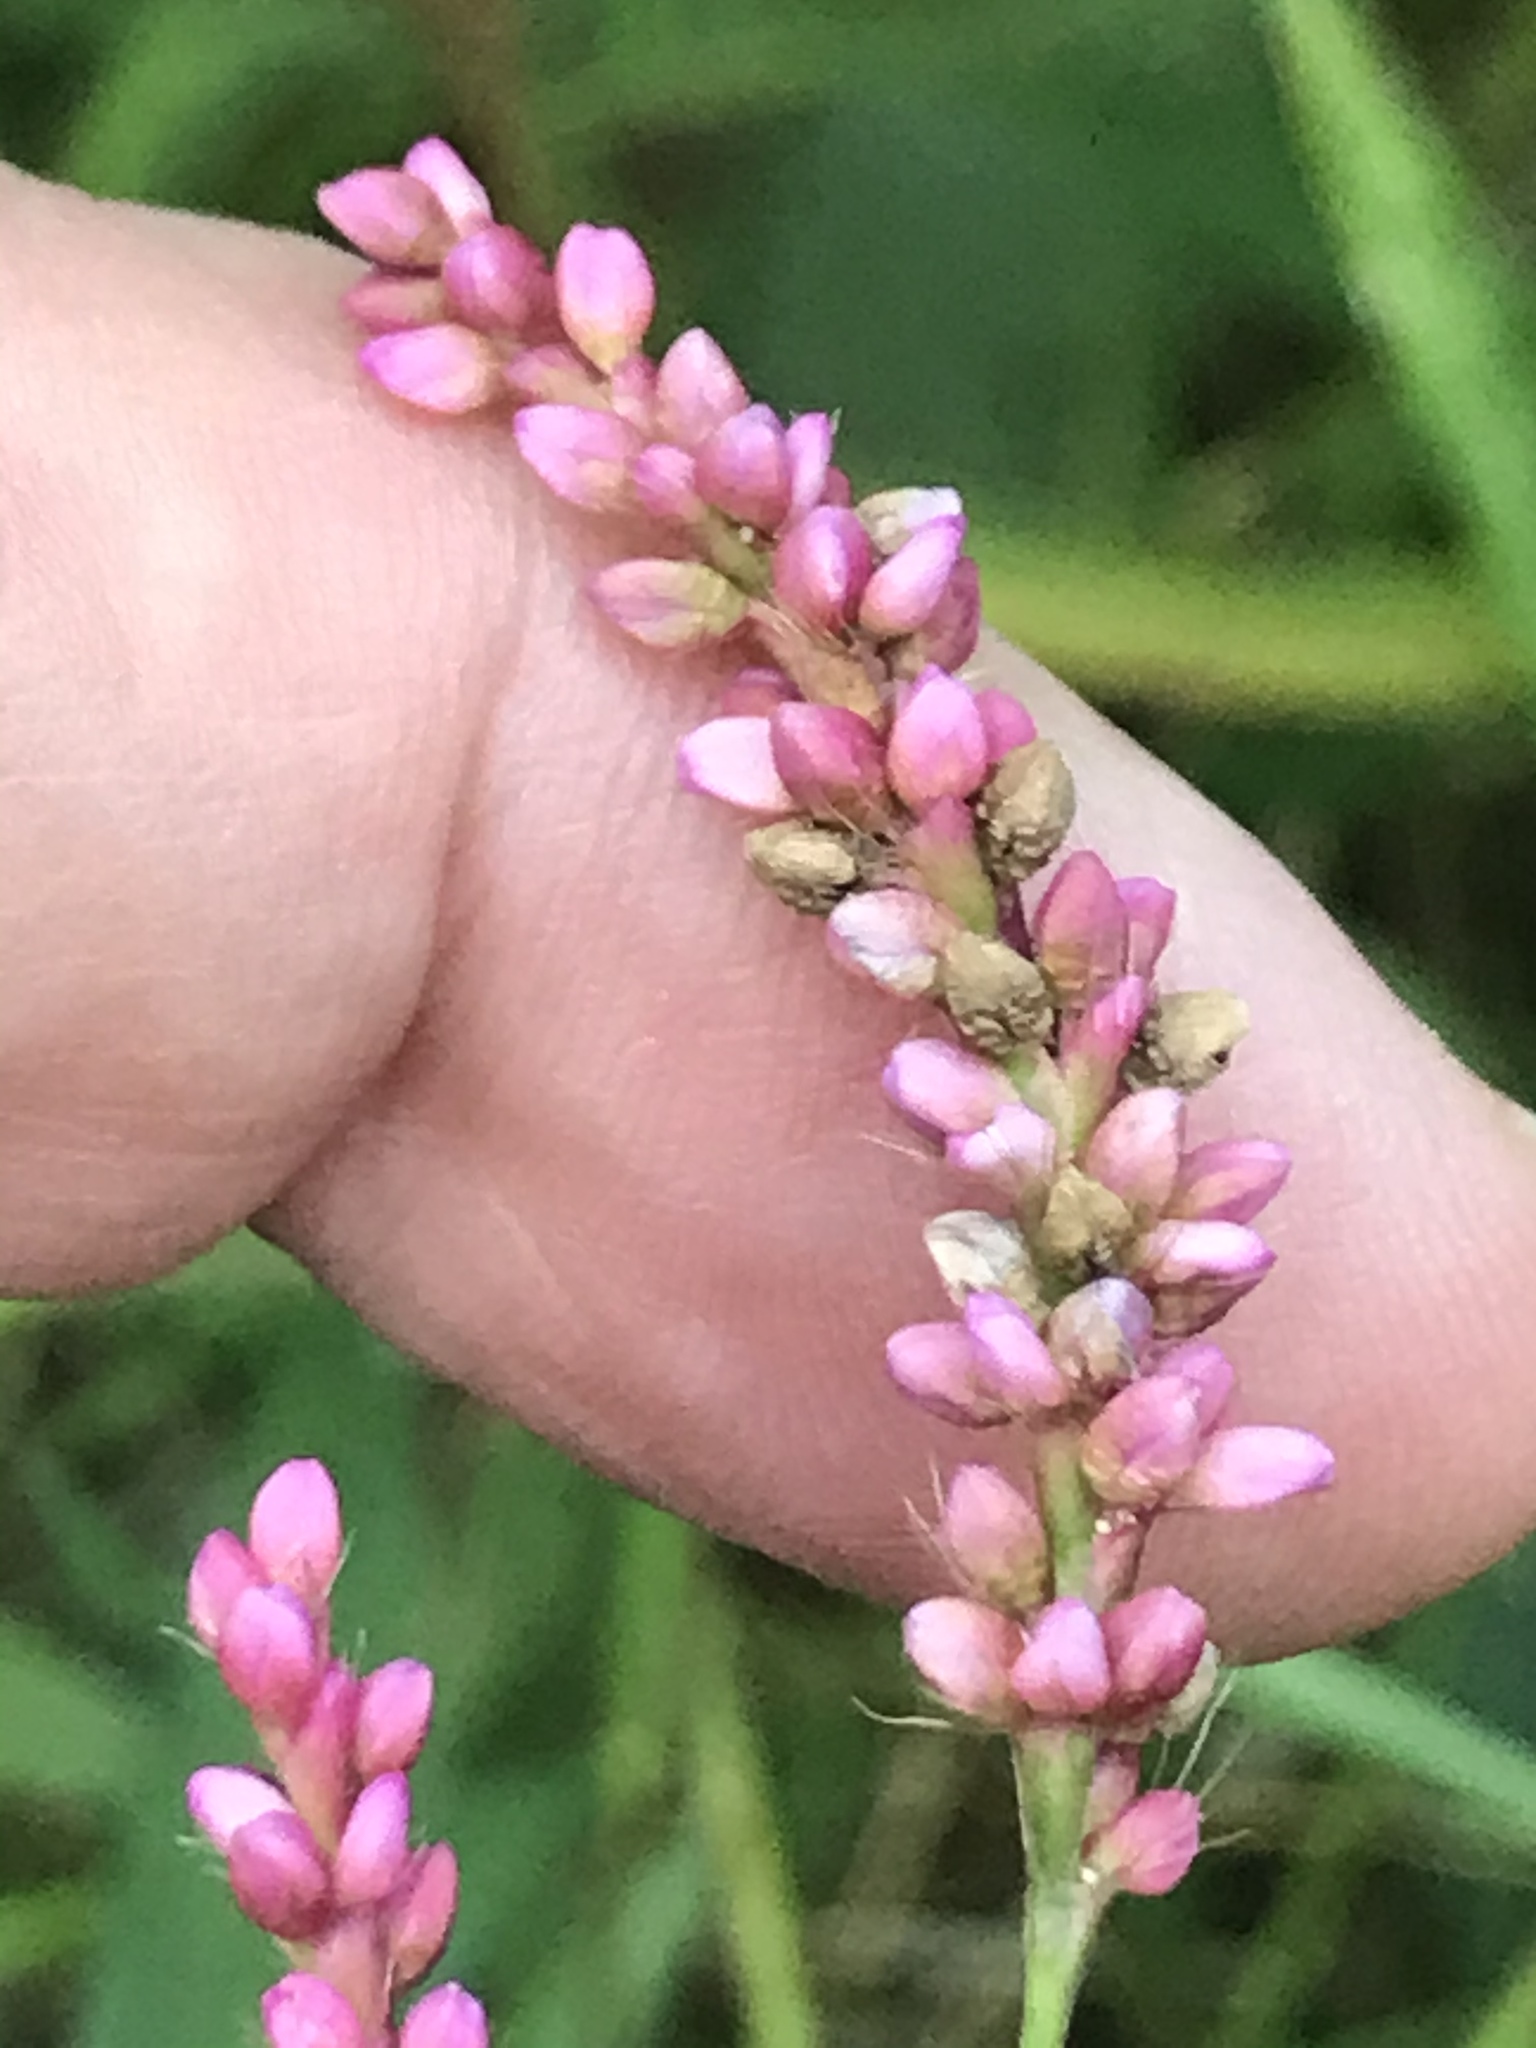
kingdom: Plantae
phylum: Tracheophyta
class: Magnoliopsida
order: Caryophyllales
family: Polygonaceae
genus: Persicaria
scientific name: Persicaria longiseta
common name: Bristly lady's-thumb
